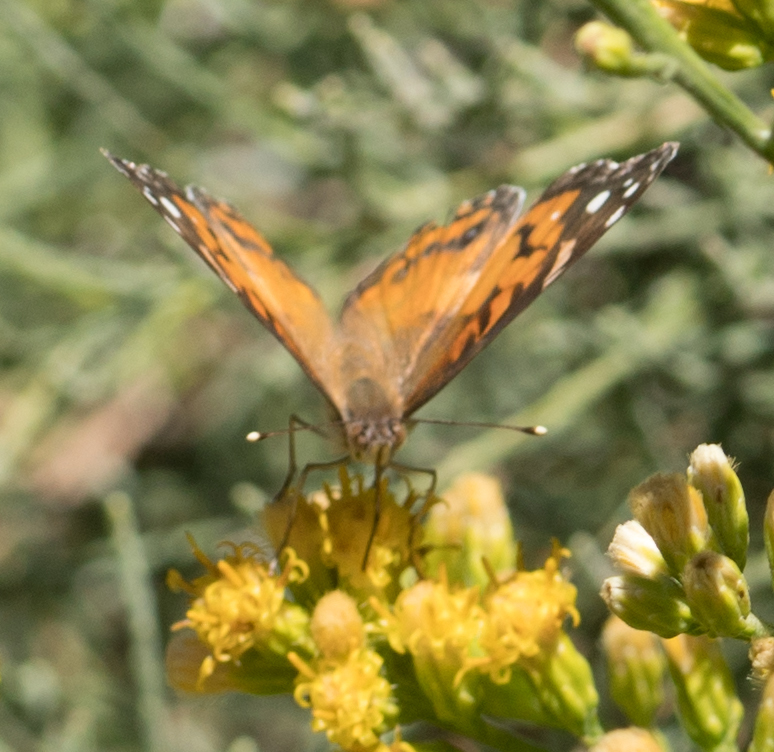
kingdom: Animalia
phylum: Arthropoda
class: Insecta
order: Lepidoptera
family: Nymphalidae
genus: Vanessa
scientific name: Vanessa virginiensis
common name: American lady
